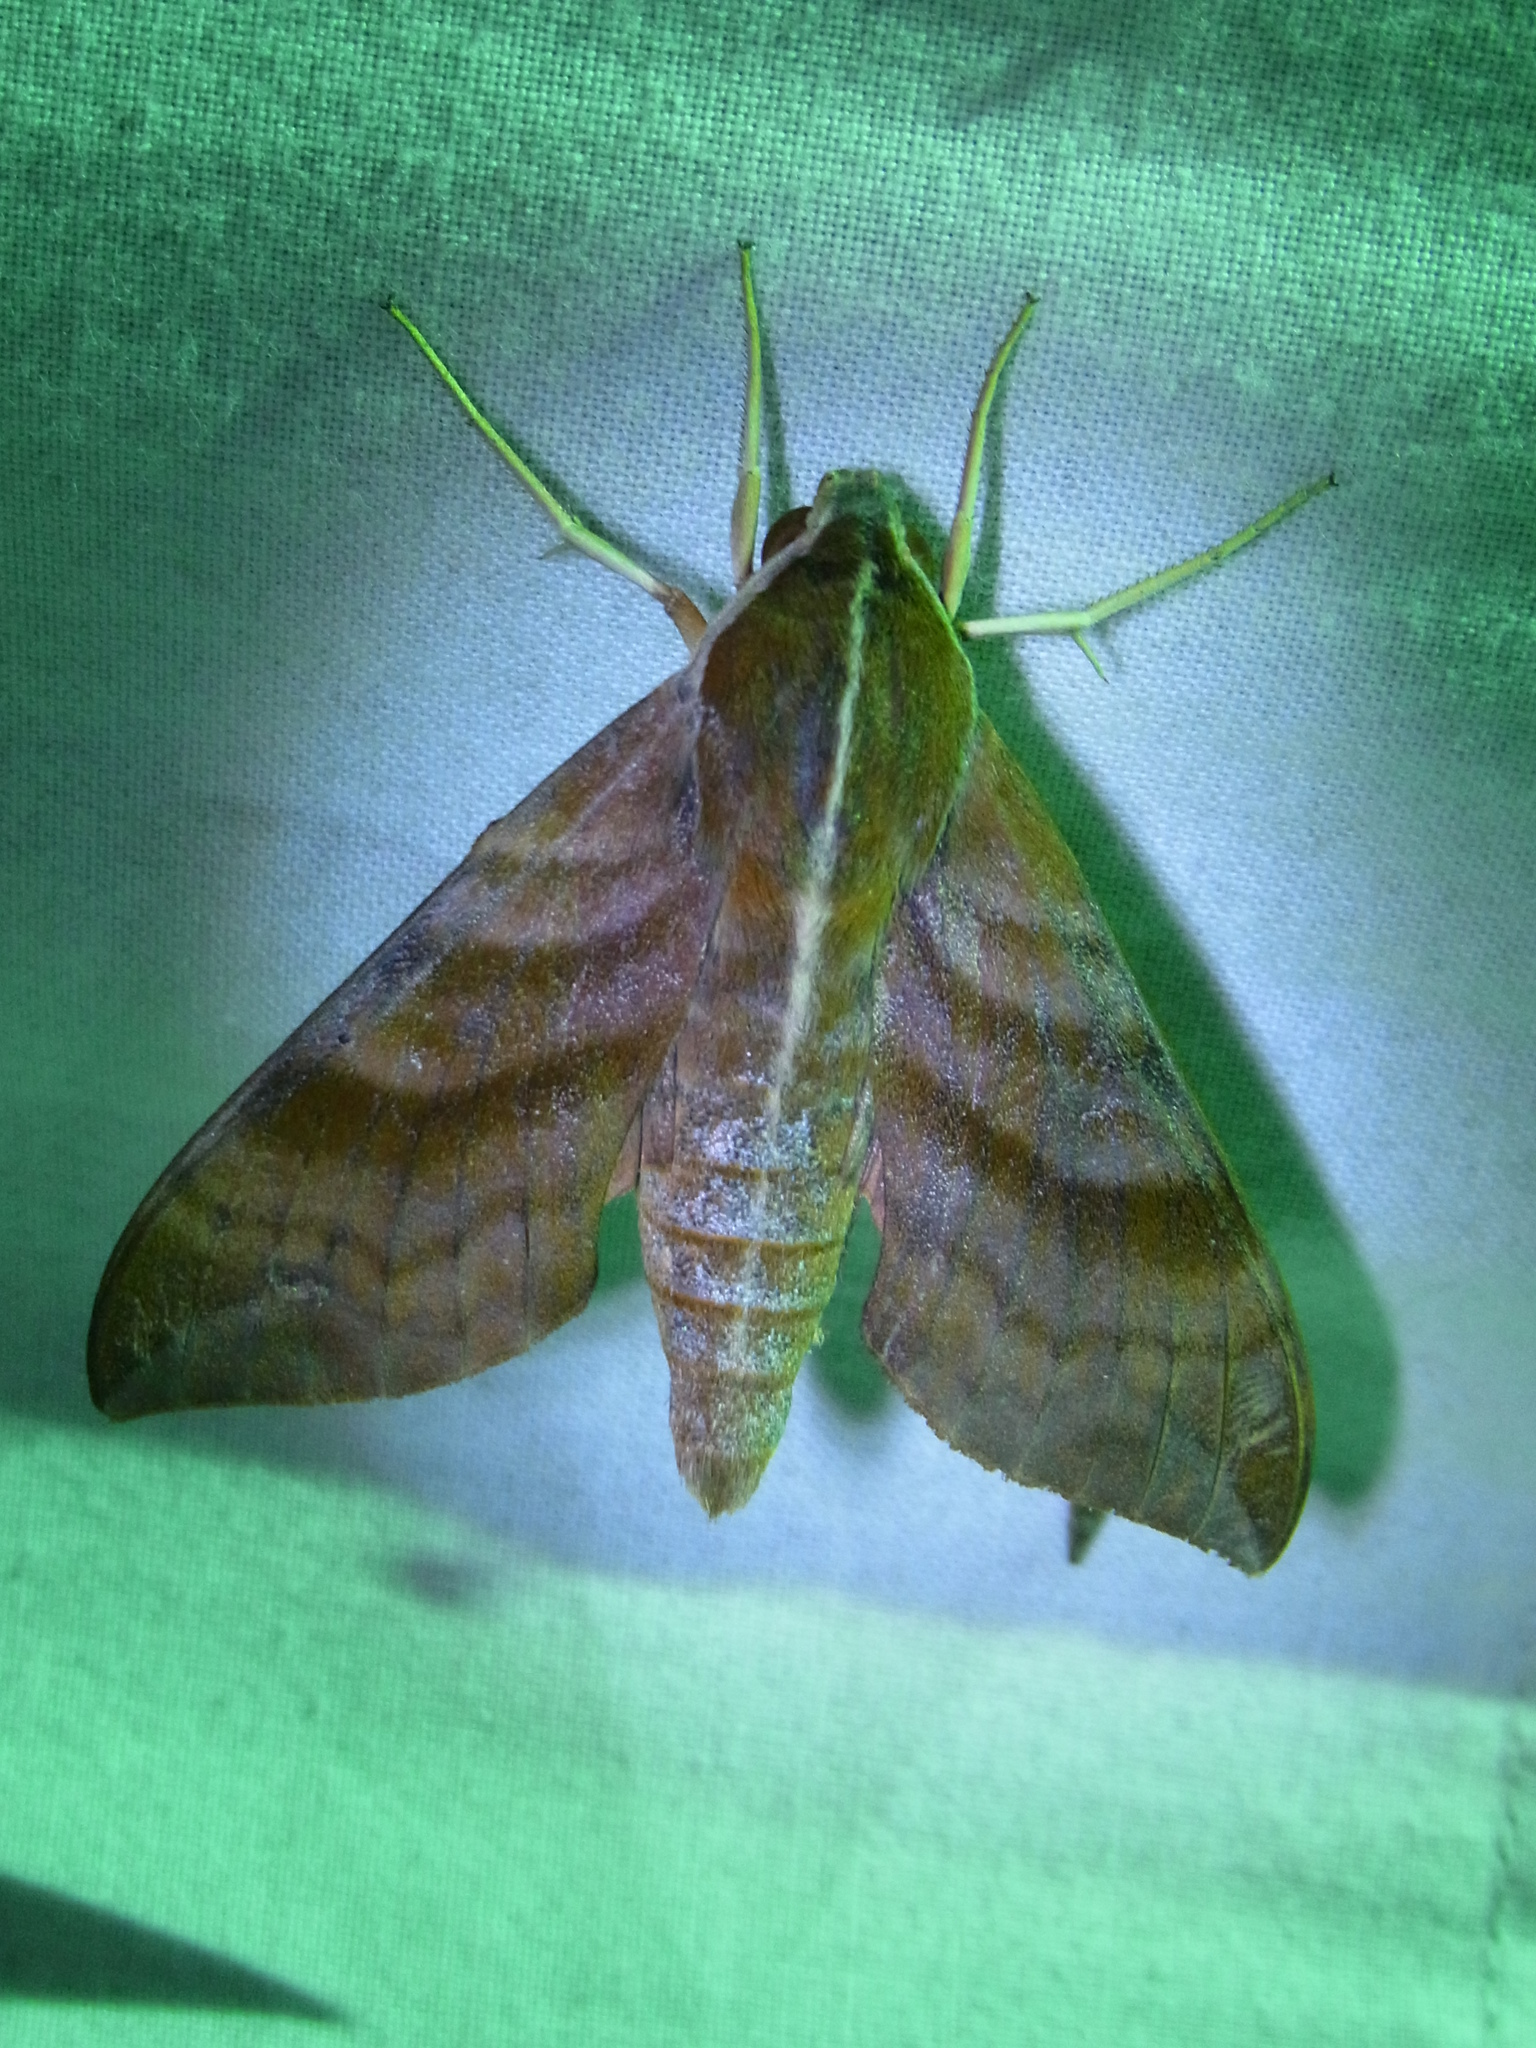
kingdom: Animalia
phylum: Arthropoda
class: Insecta
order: Lepidoptera
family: Sphingidae
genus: Ampelophaga
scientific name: Ampelophaga rubiginosa
